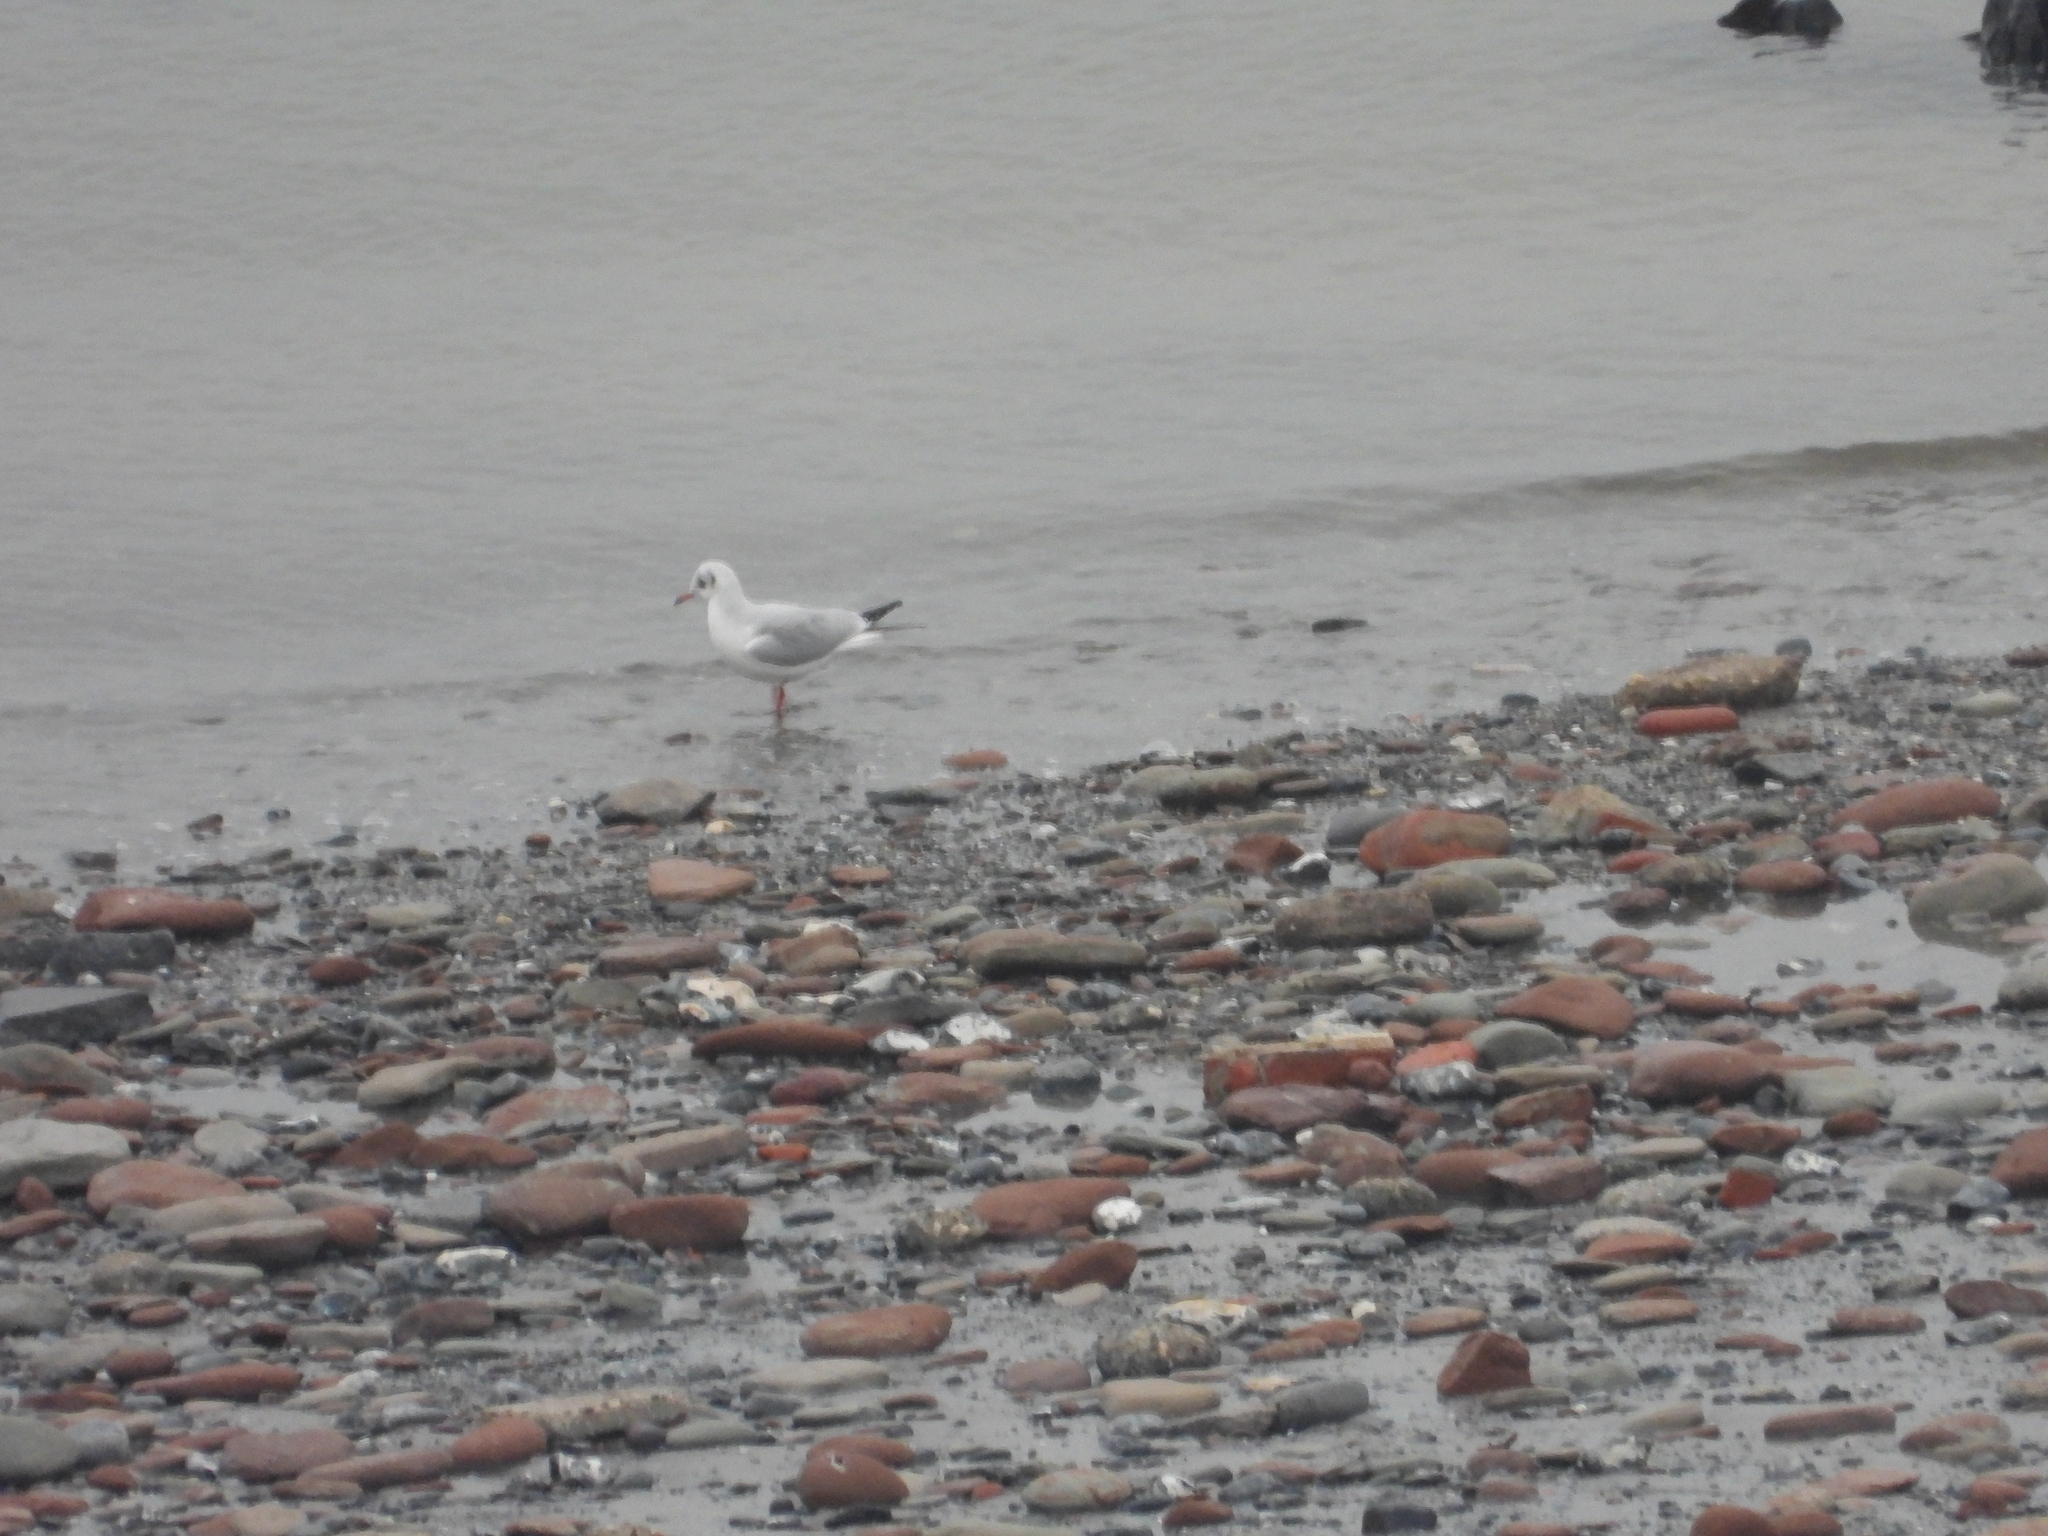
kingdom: Animalia
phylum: Chordata
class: Aves
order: Charadriiformes
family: Laridae
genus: Chroicocephalus
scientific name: Chroicocephalus ridibundus
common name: Black-headed gull
